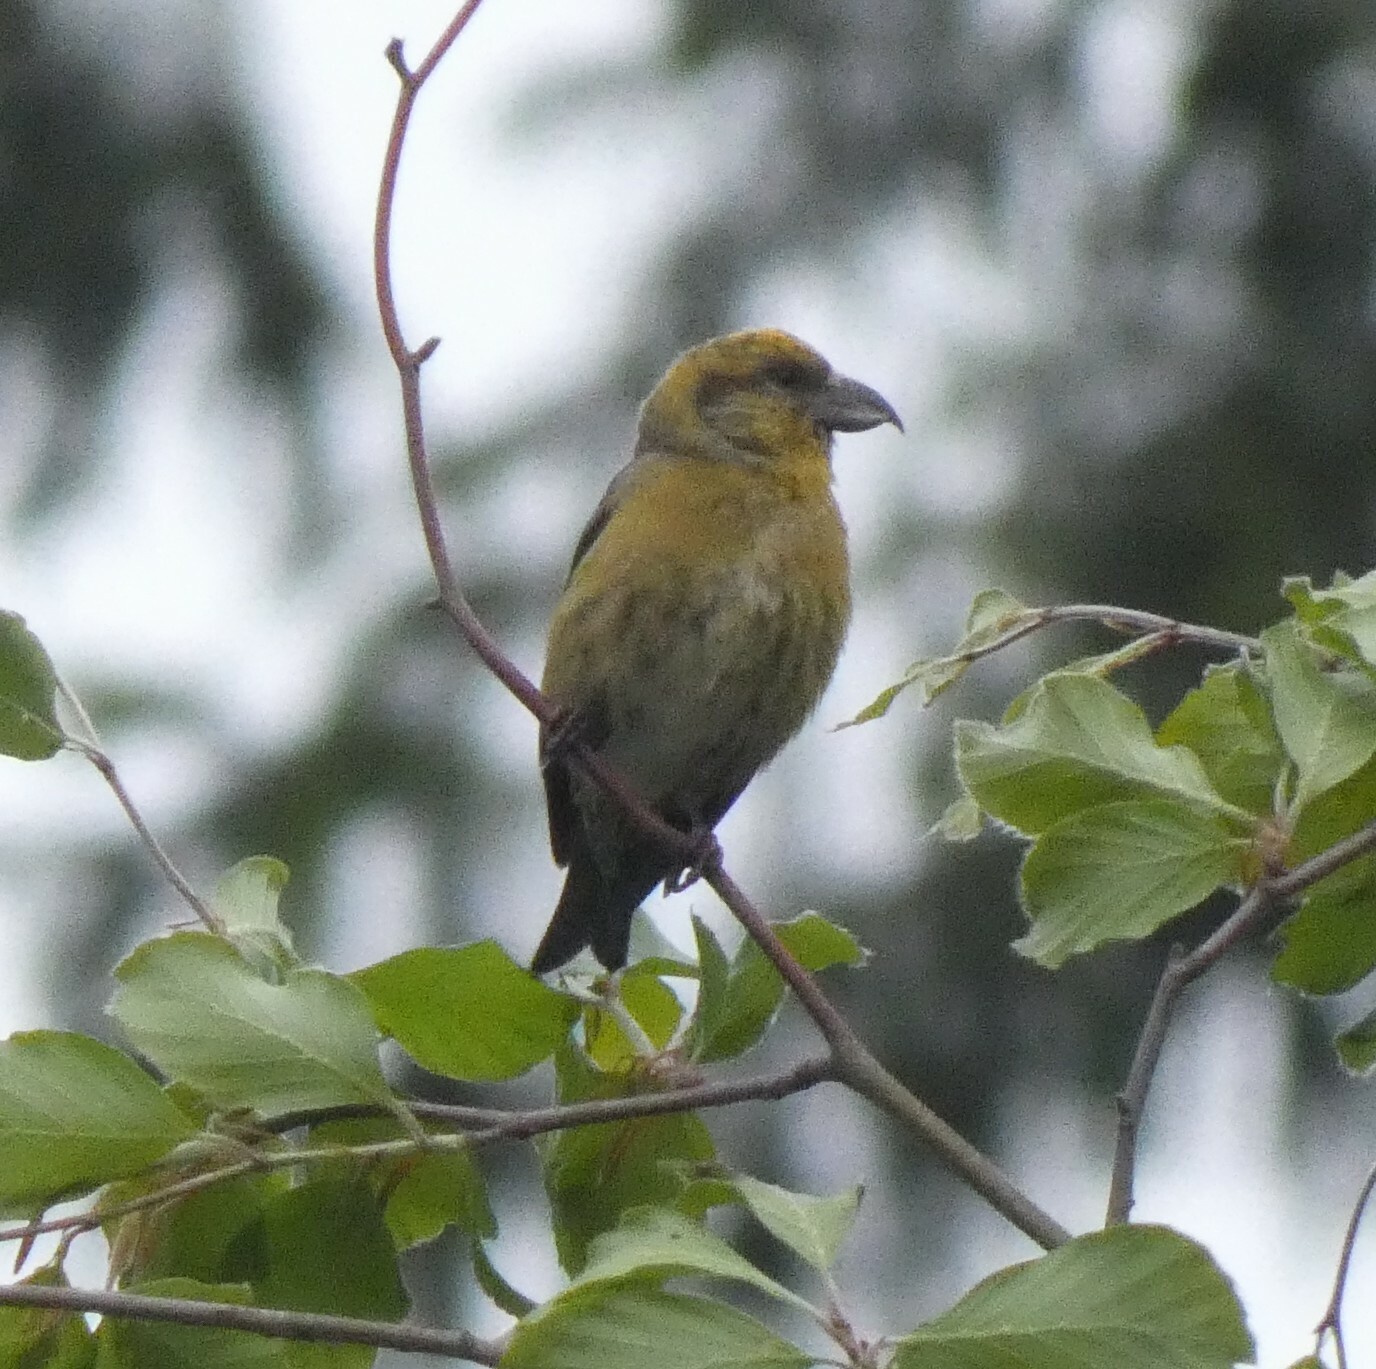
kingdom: Animalia
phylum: Chordata
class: Aves
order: Passeriformes
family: Fringillidae
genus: Loxia
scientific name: Loxia curvirostra
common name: Red crossbill
